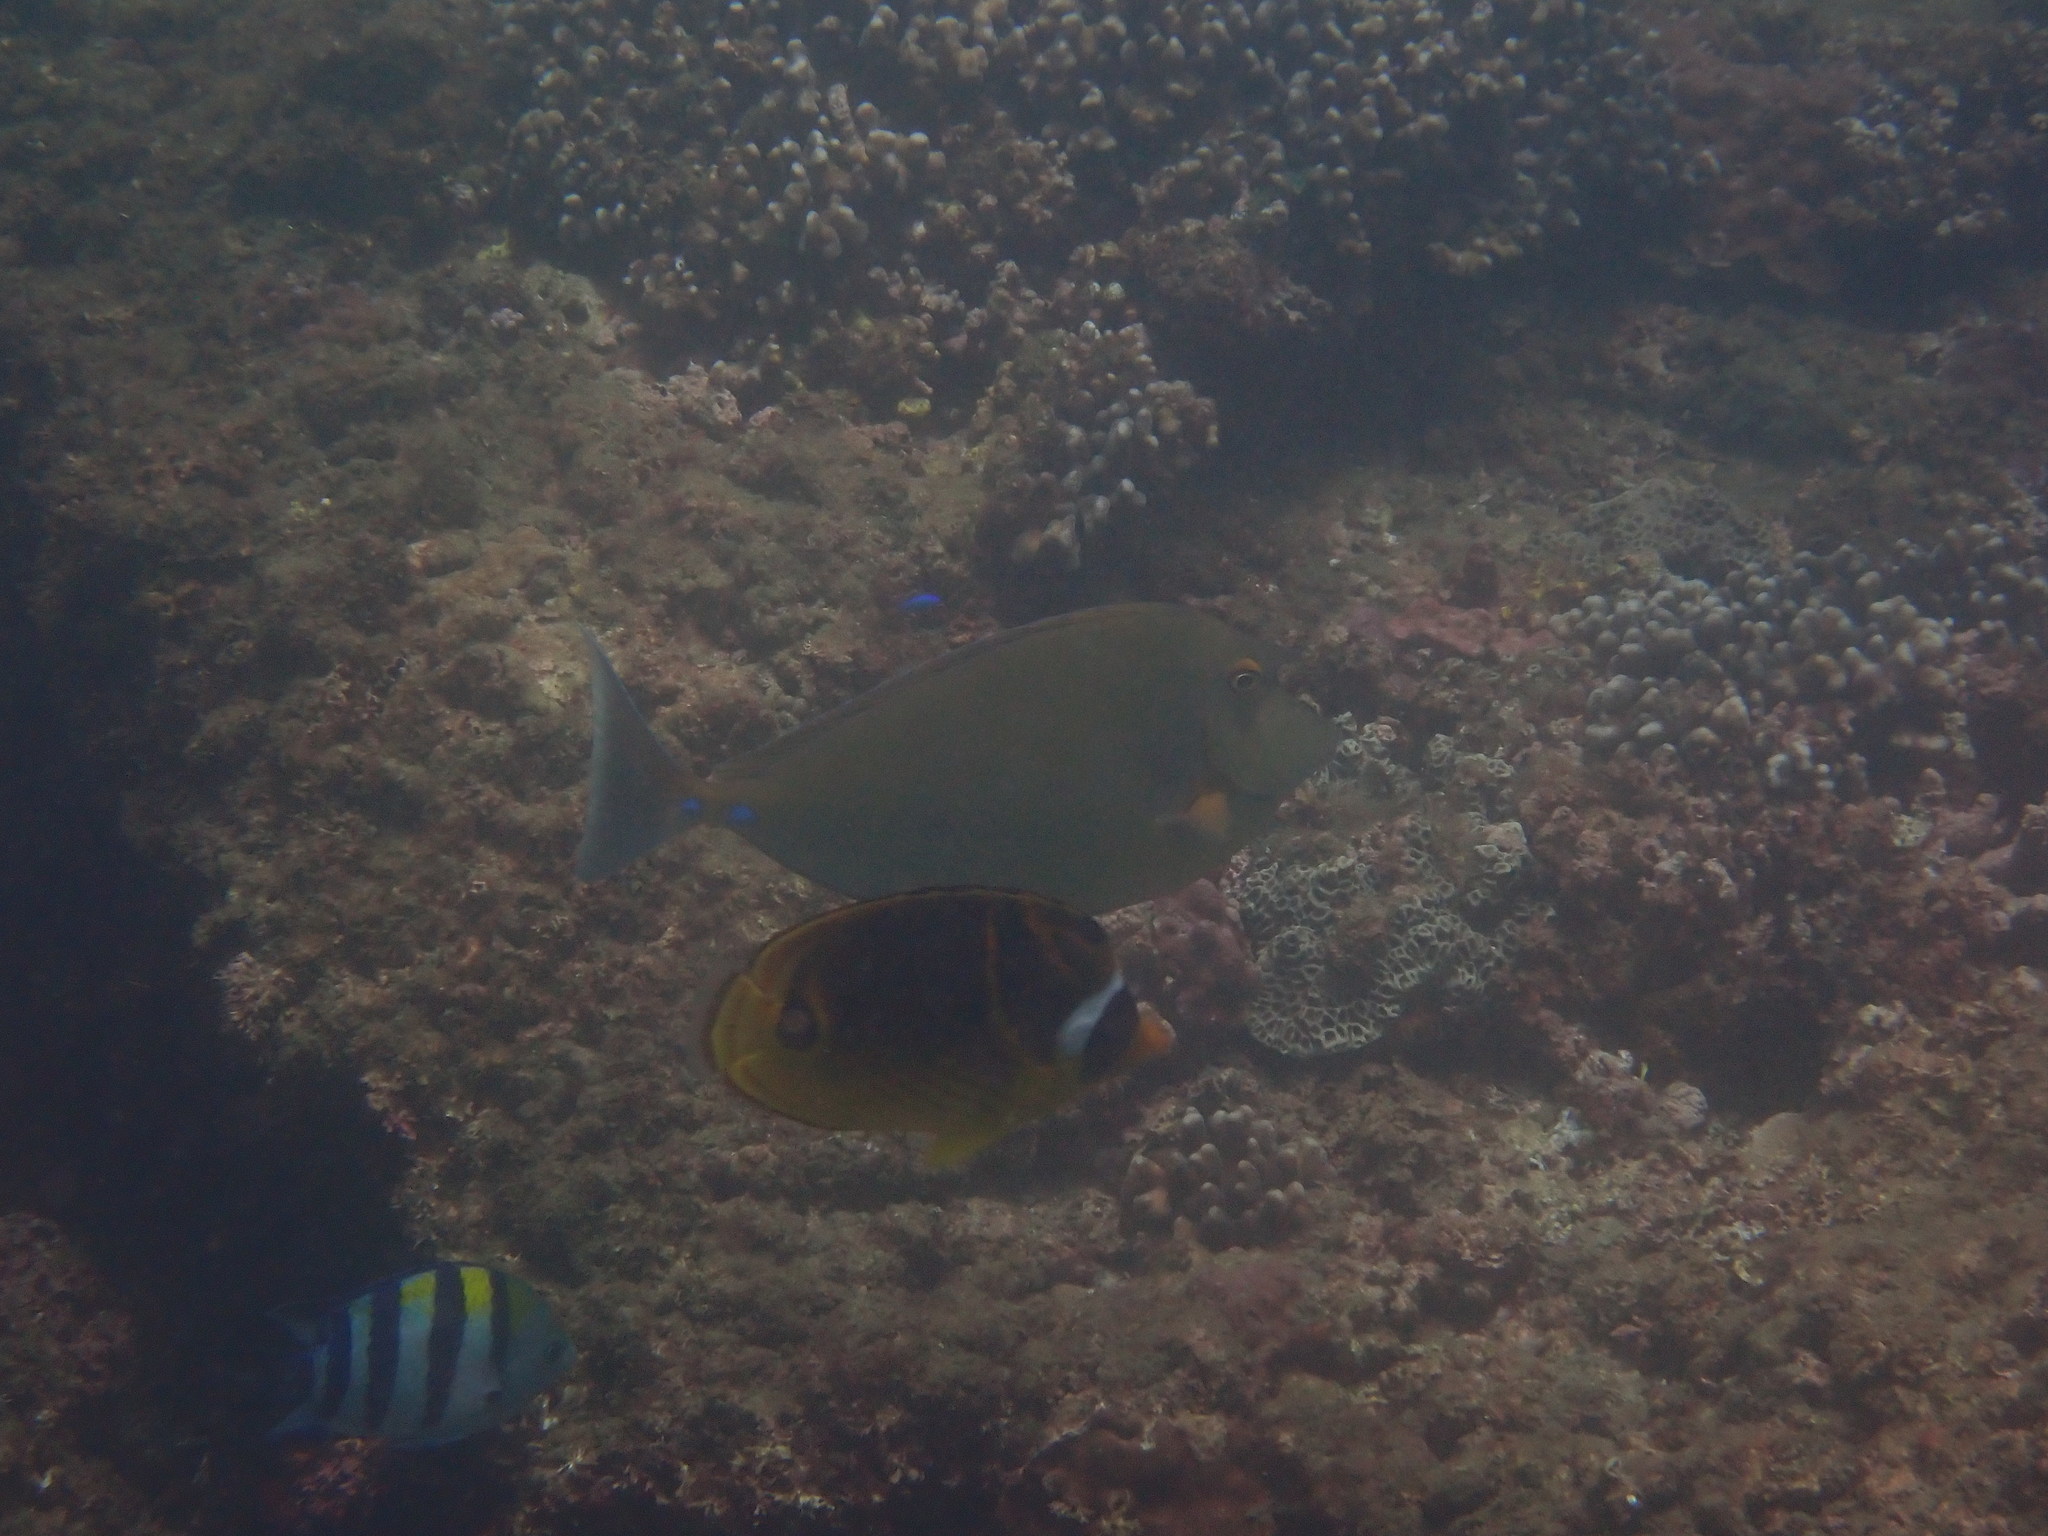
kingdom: Animalia
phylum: Chordata
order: Perciformes
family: Acanthuridae
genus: Naso
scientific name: Naso unicornis
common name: Bluespine unicornfish
